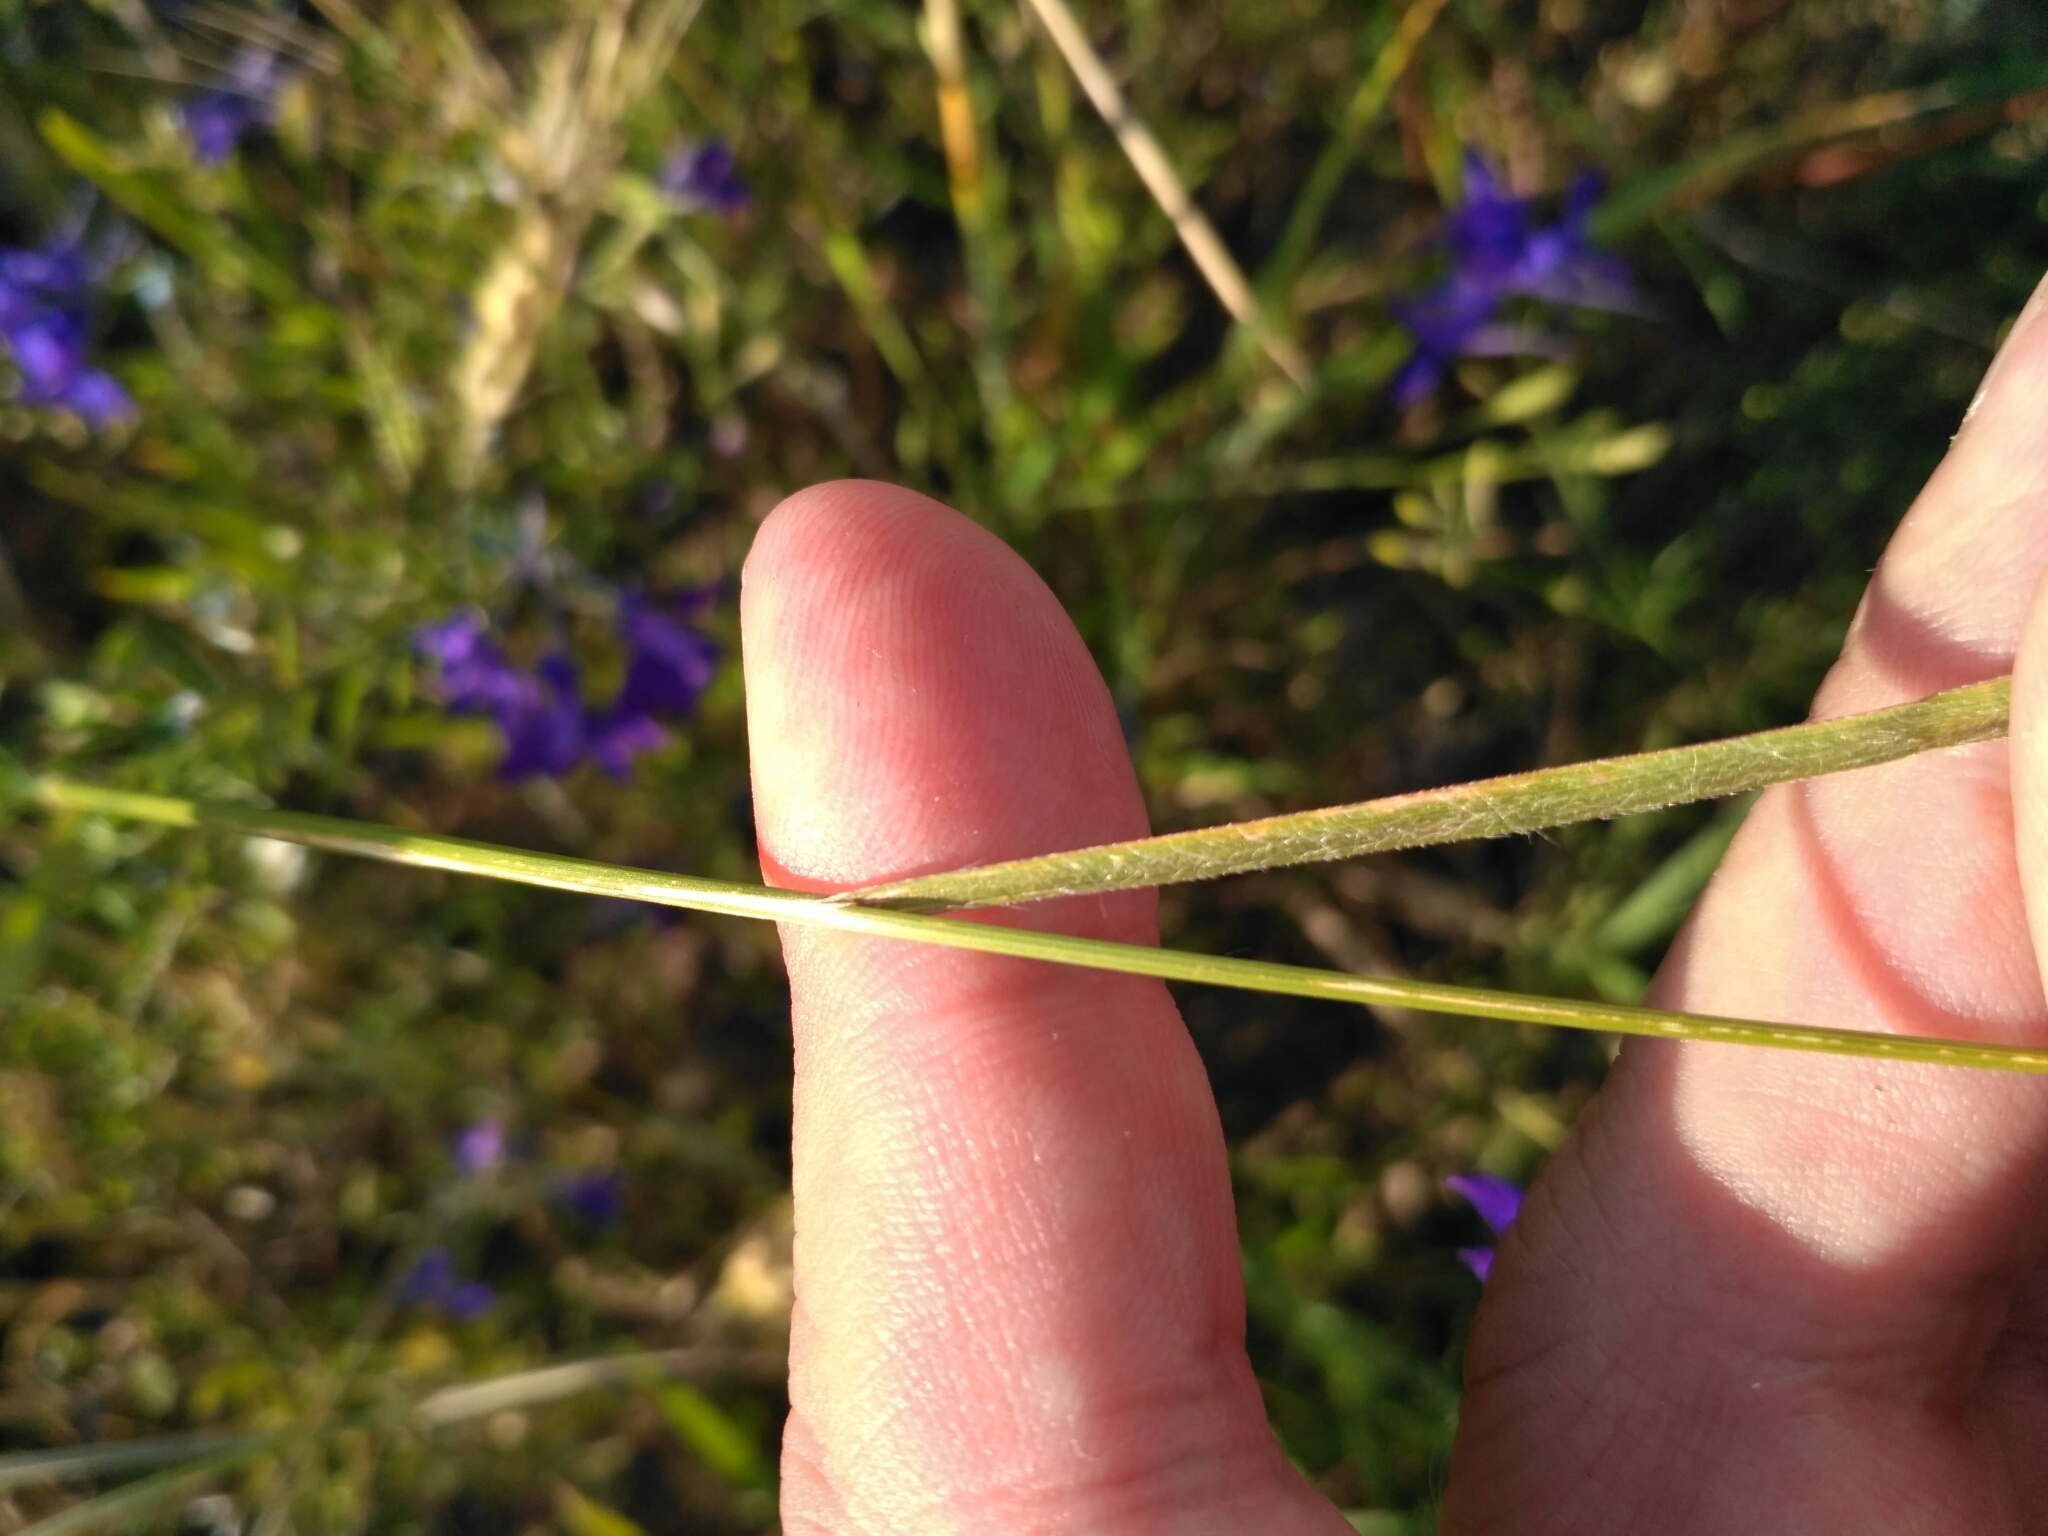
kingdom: Plantae
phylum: Tracheophyta
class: Liliopsida
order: Poales
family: Poaceae
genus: Bromus
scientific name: Bromus secalinus
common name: Rye brome
